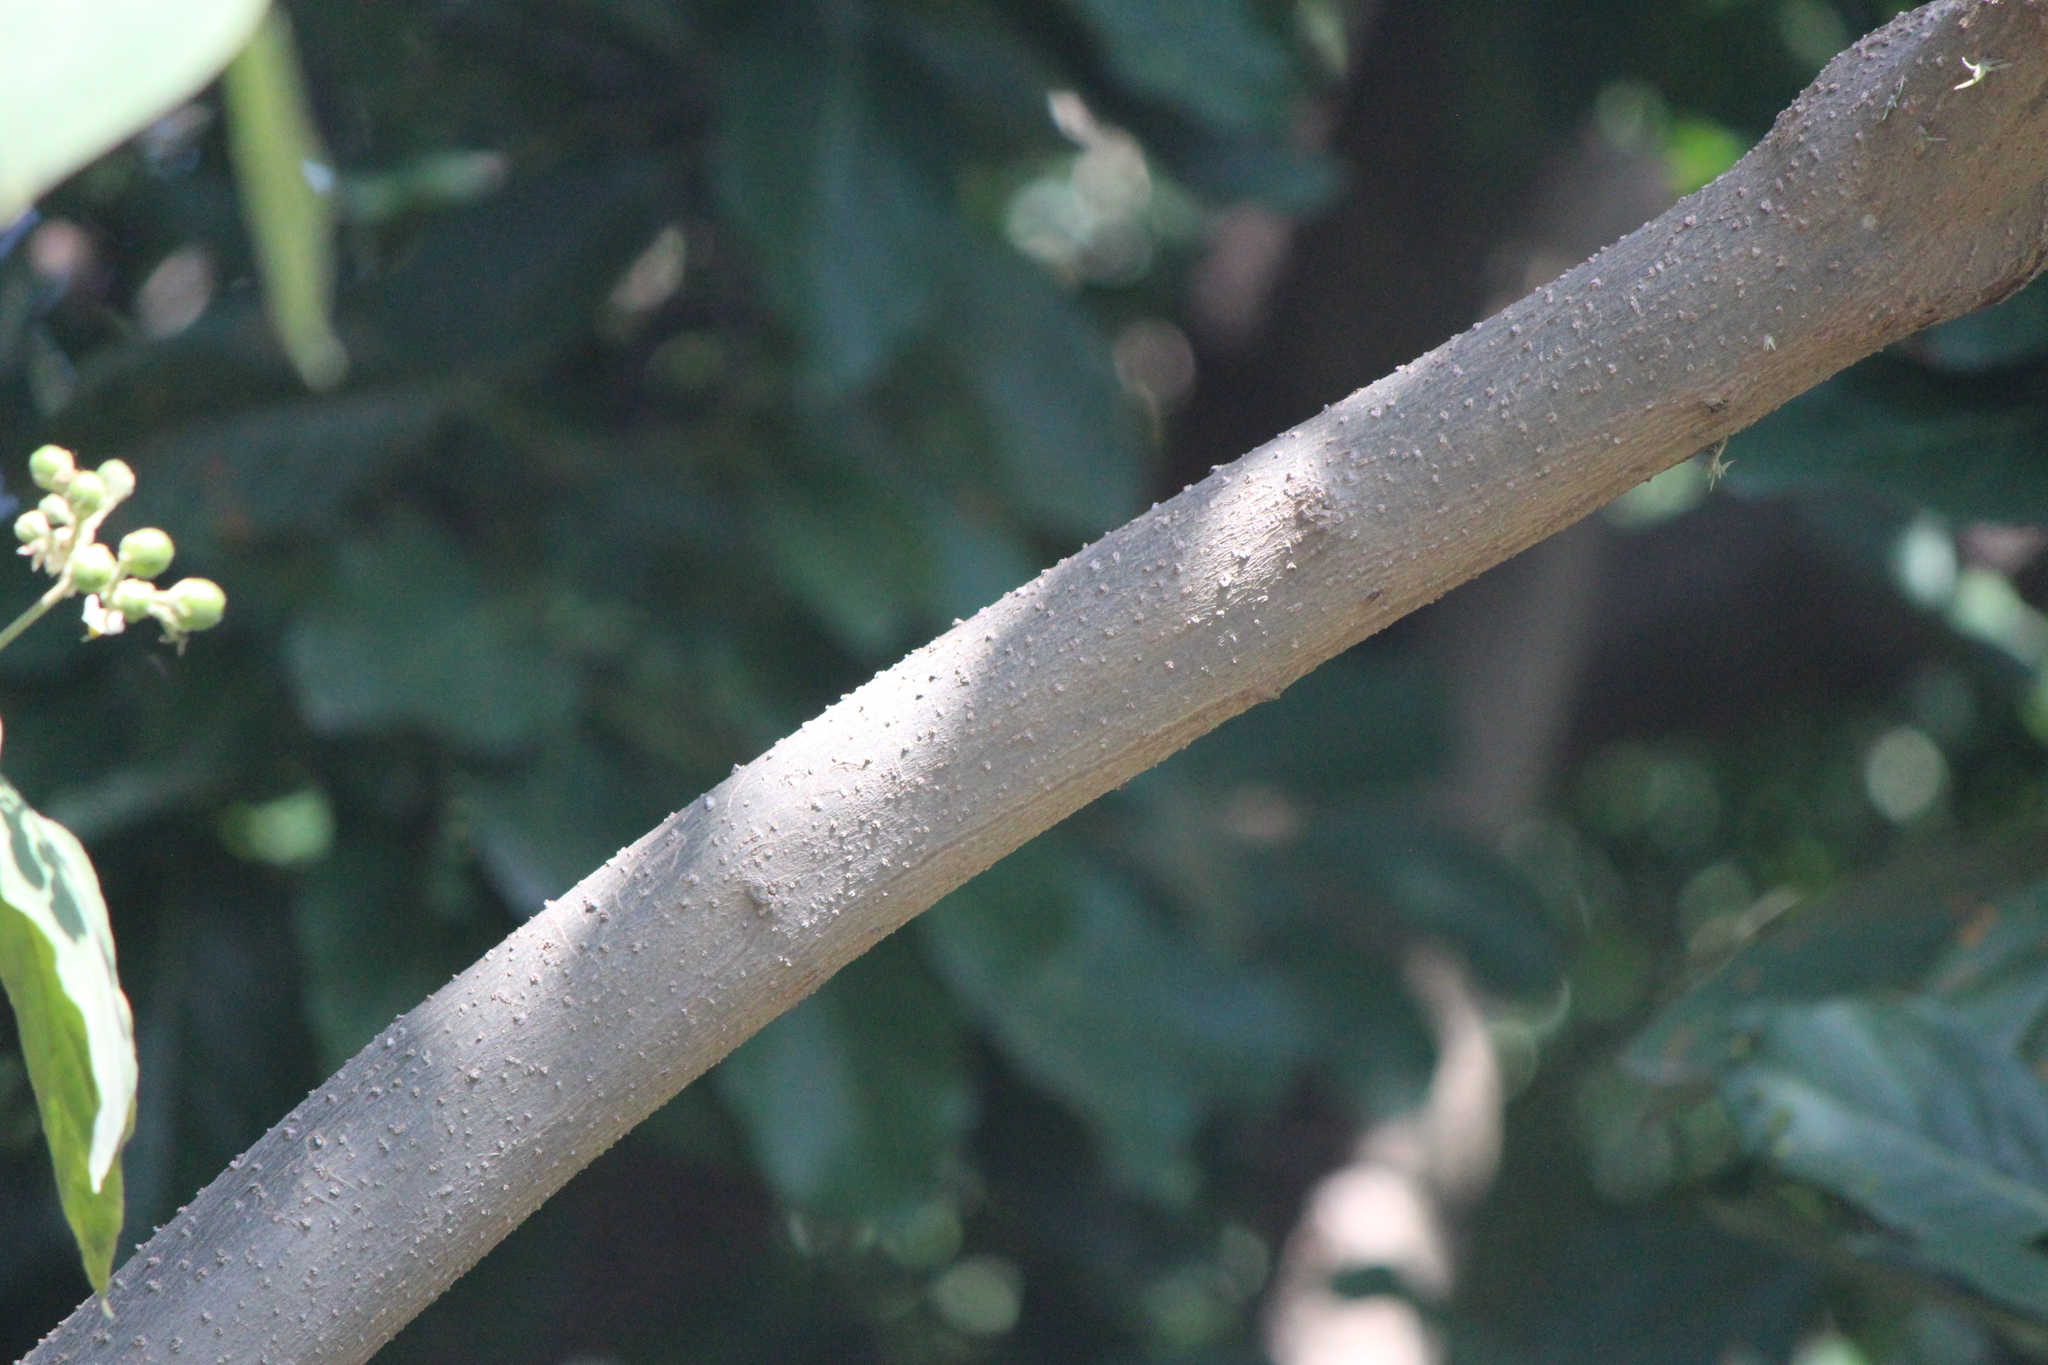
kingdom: Plantae
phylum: Tracheophyta
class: Magnoliopsida
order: Solanales
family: Solanaceae
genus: Solanum
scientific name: Solanum erianthum
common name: Tobacco-tree
